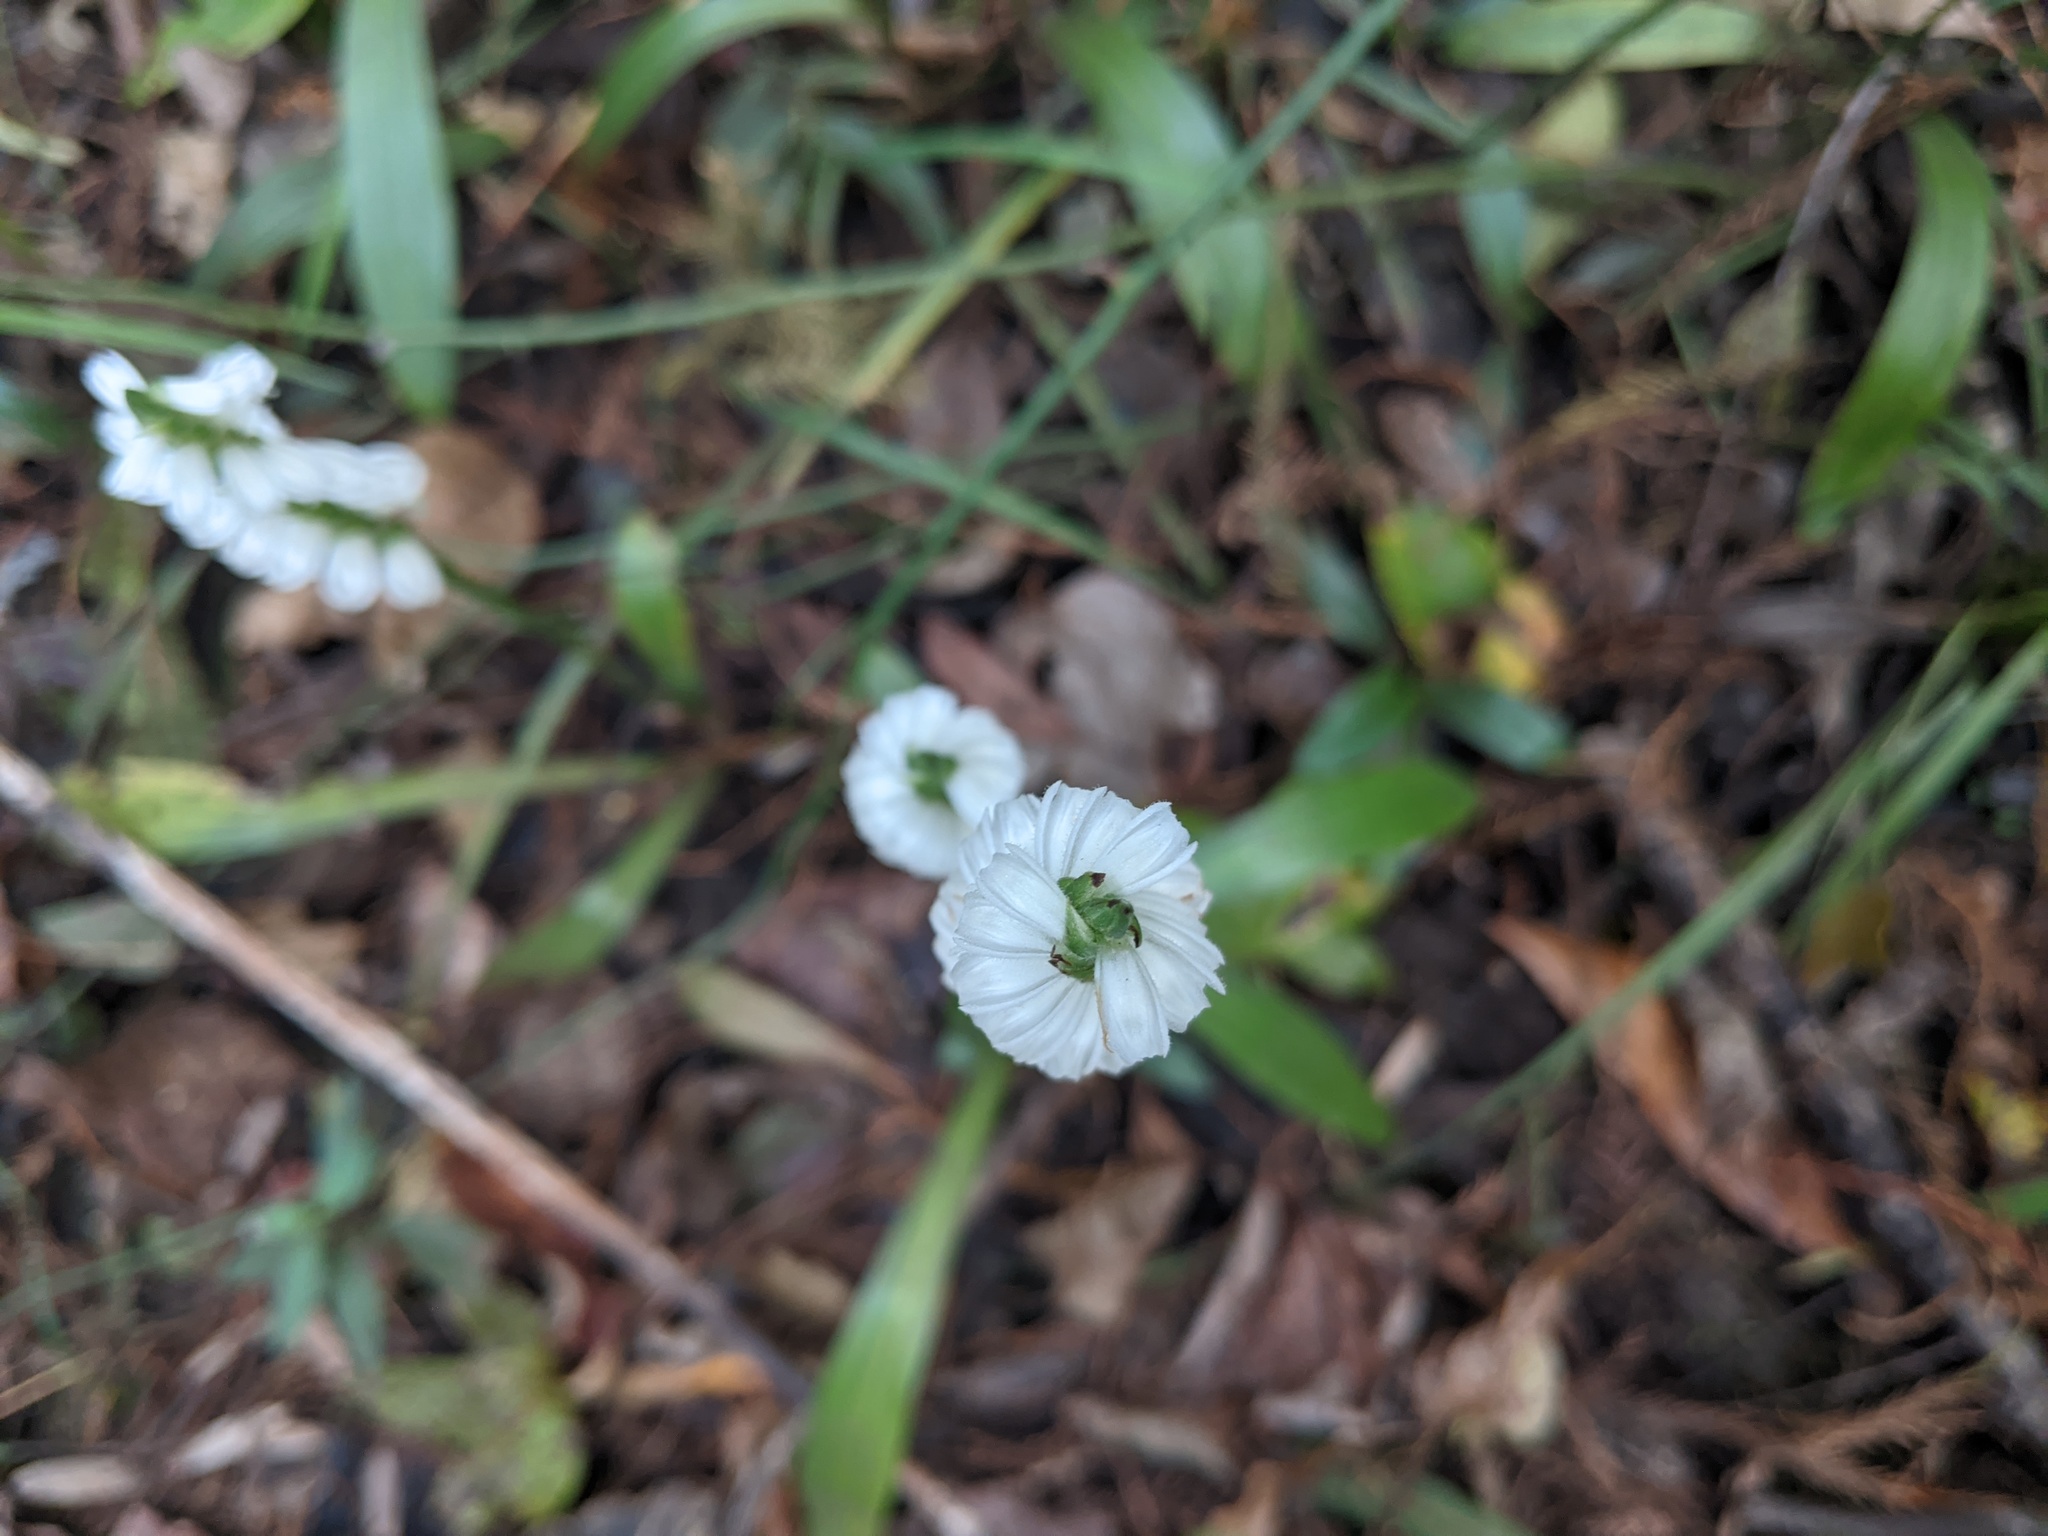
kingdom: Plantae
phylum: Tracheophyta
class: Liliopsida
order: Asparagales
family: Orchidaceae
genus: Spiranthes
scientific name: Spiranthes odorata
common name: Marsh ladies'-tresses
